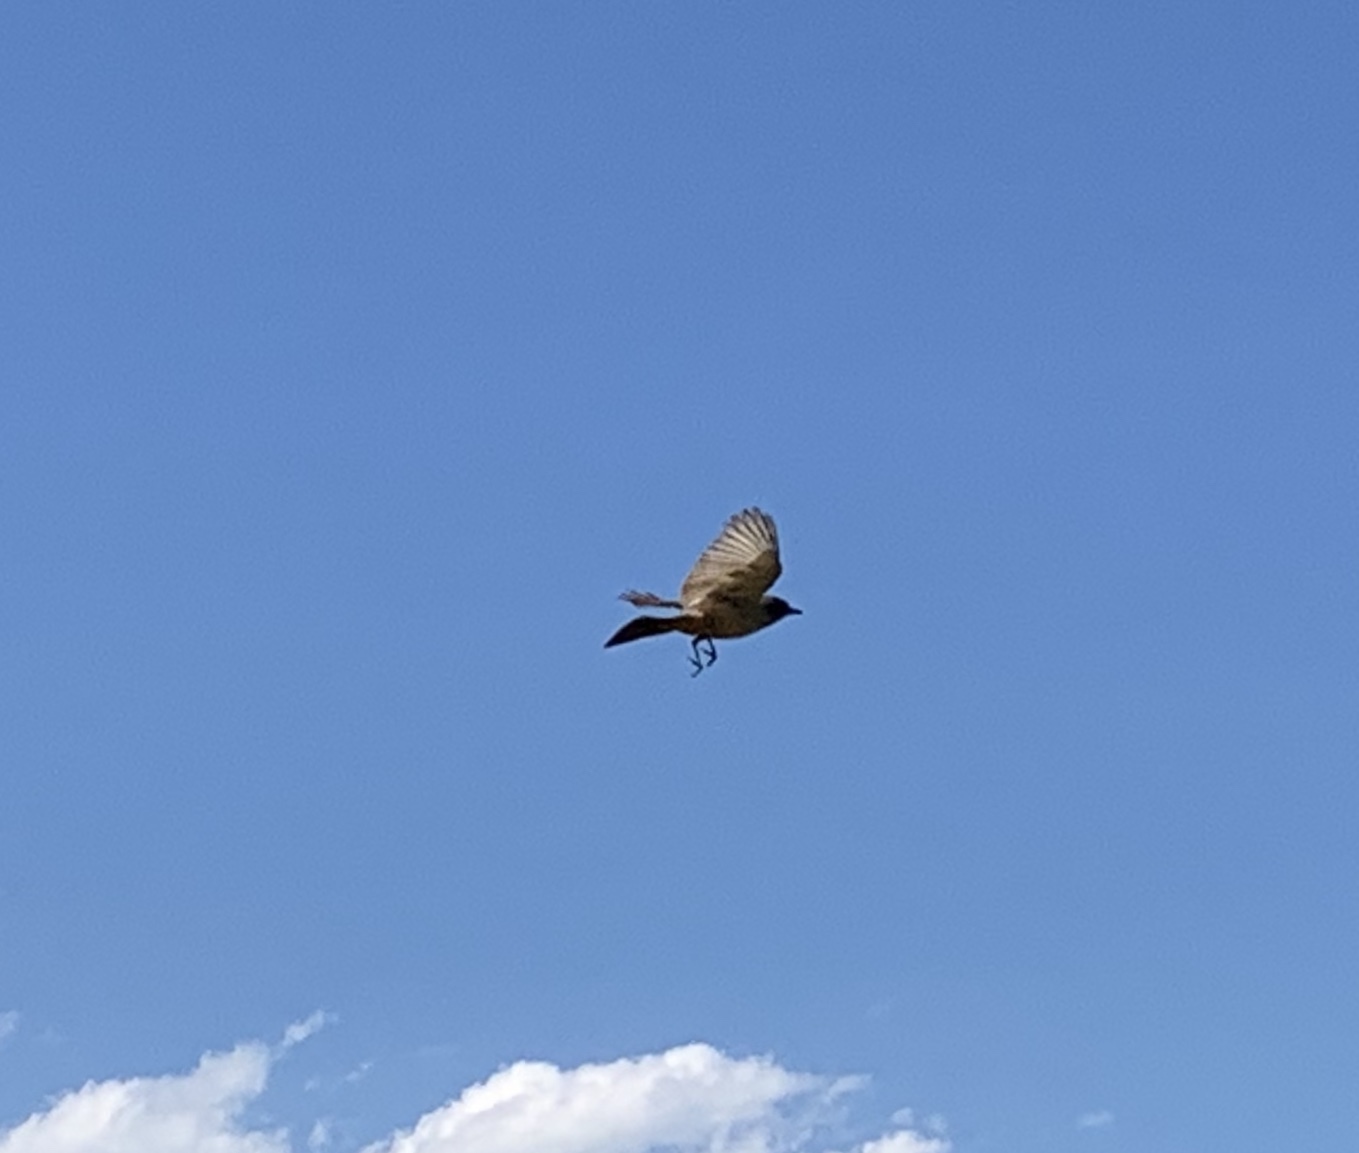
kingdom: Animalia
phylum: Chordata
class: Aves
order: Passeriformes
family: Tyrannidae
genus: Sayornis
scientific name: Sayornis saya
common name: Say's phoebe
